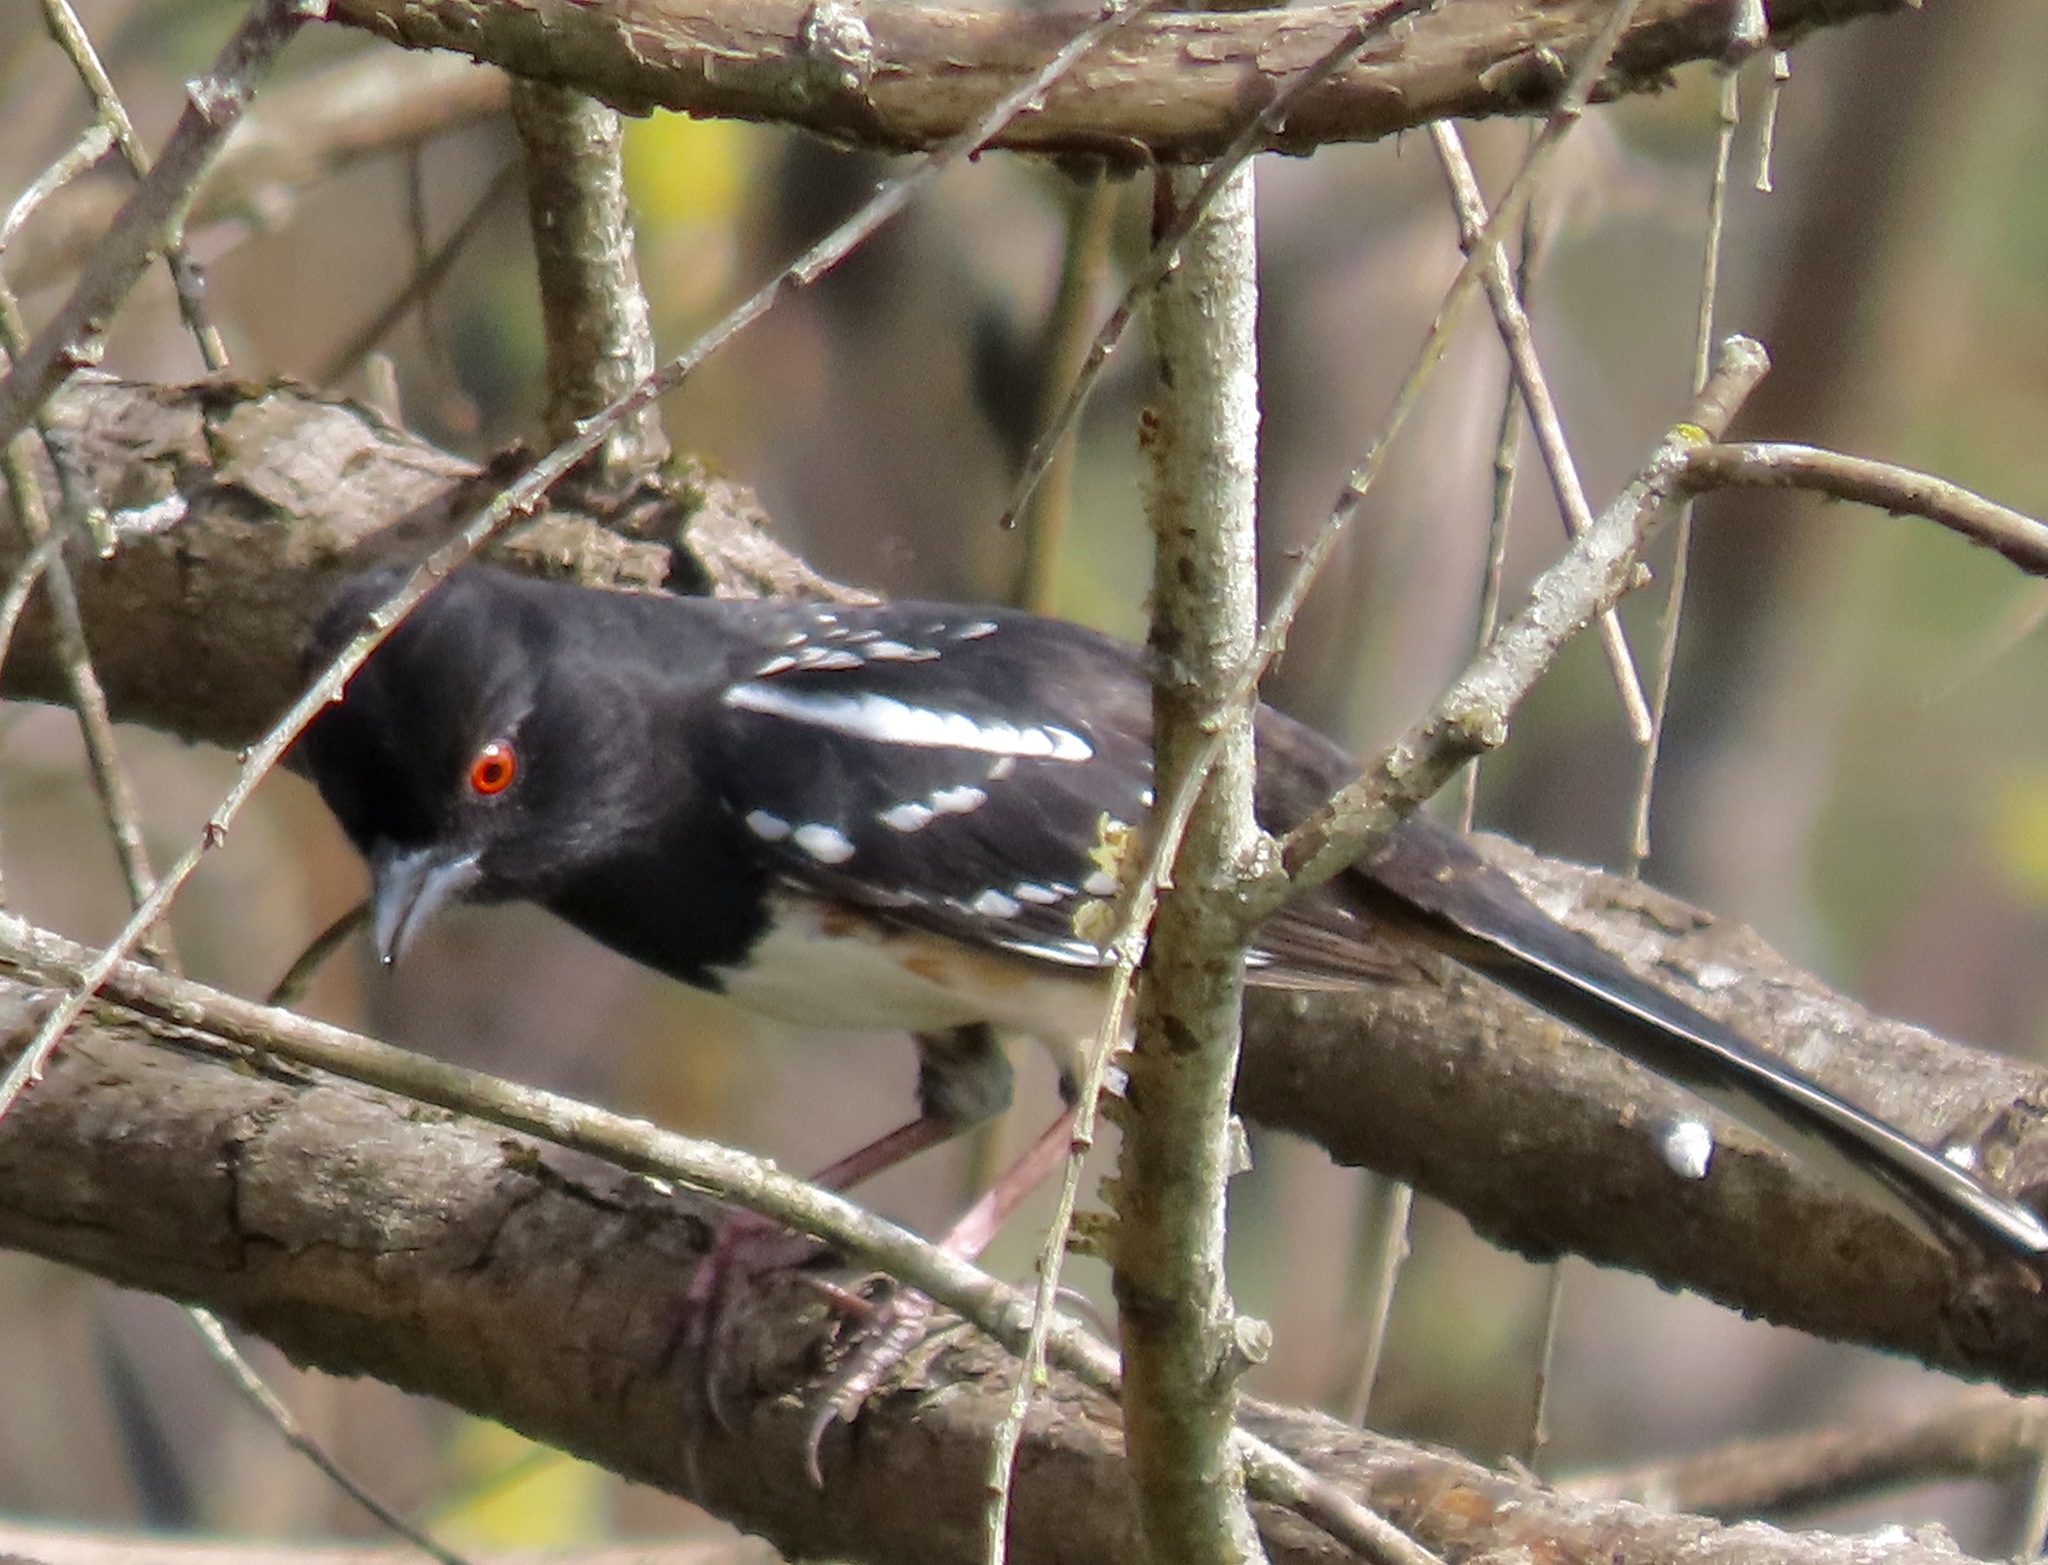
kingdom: Animalia
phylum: Chordata
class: Aves
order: Passeriformes
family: Passerellidae
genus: Pipilo
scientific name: Pipilo maculatus
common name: Spotted towhee
